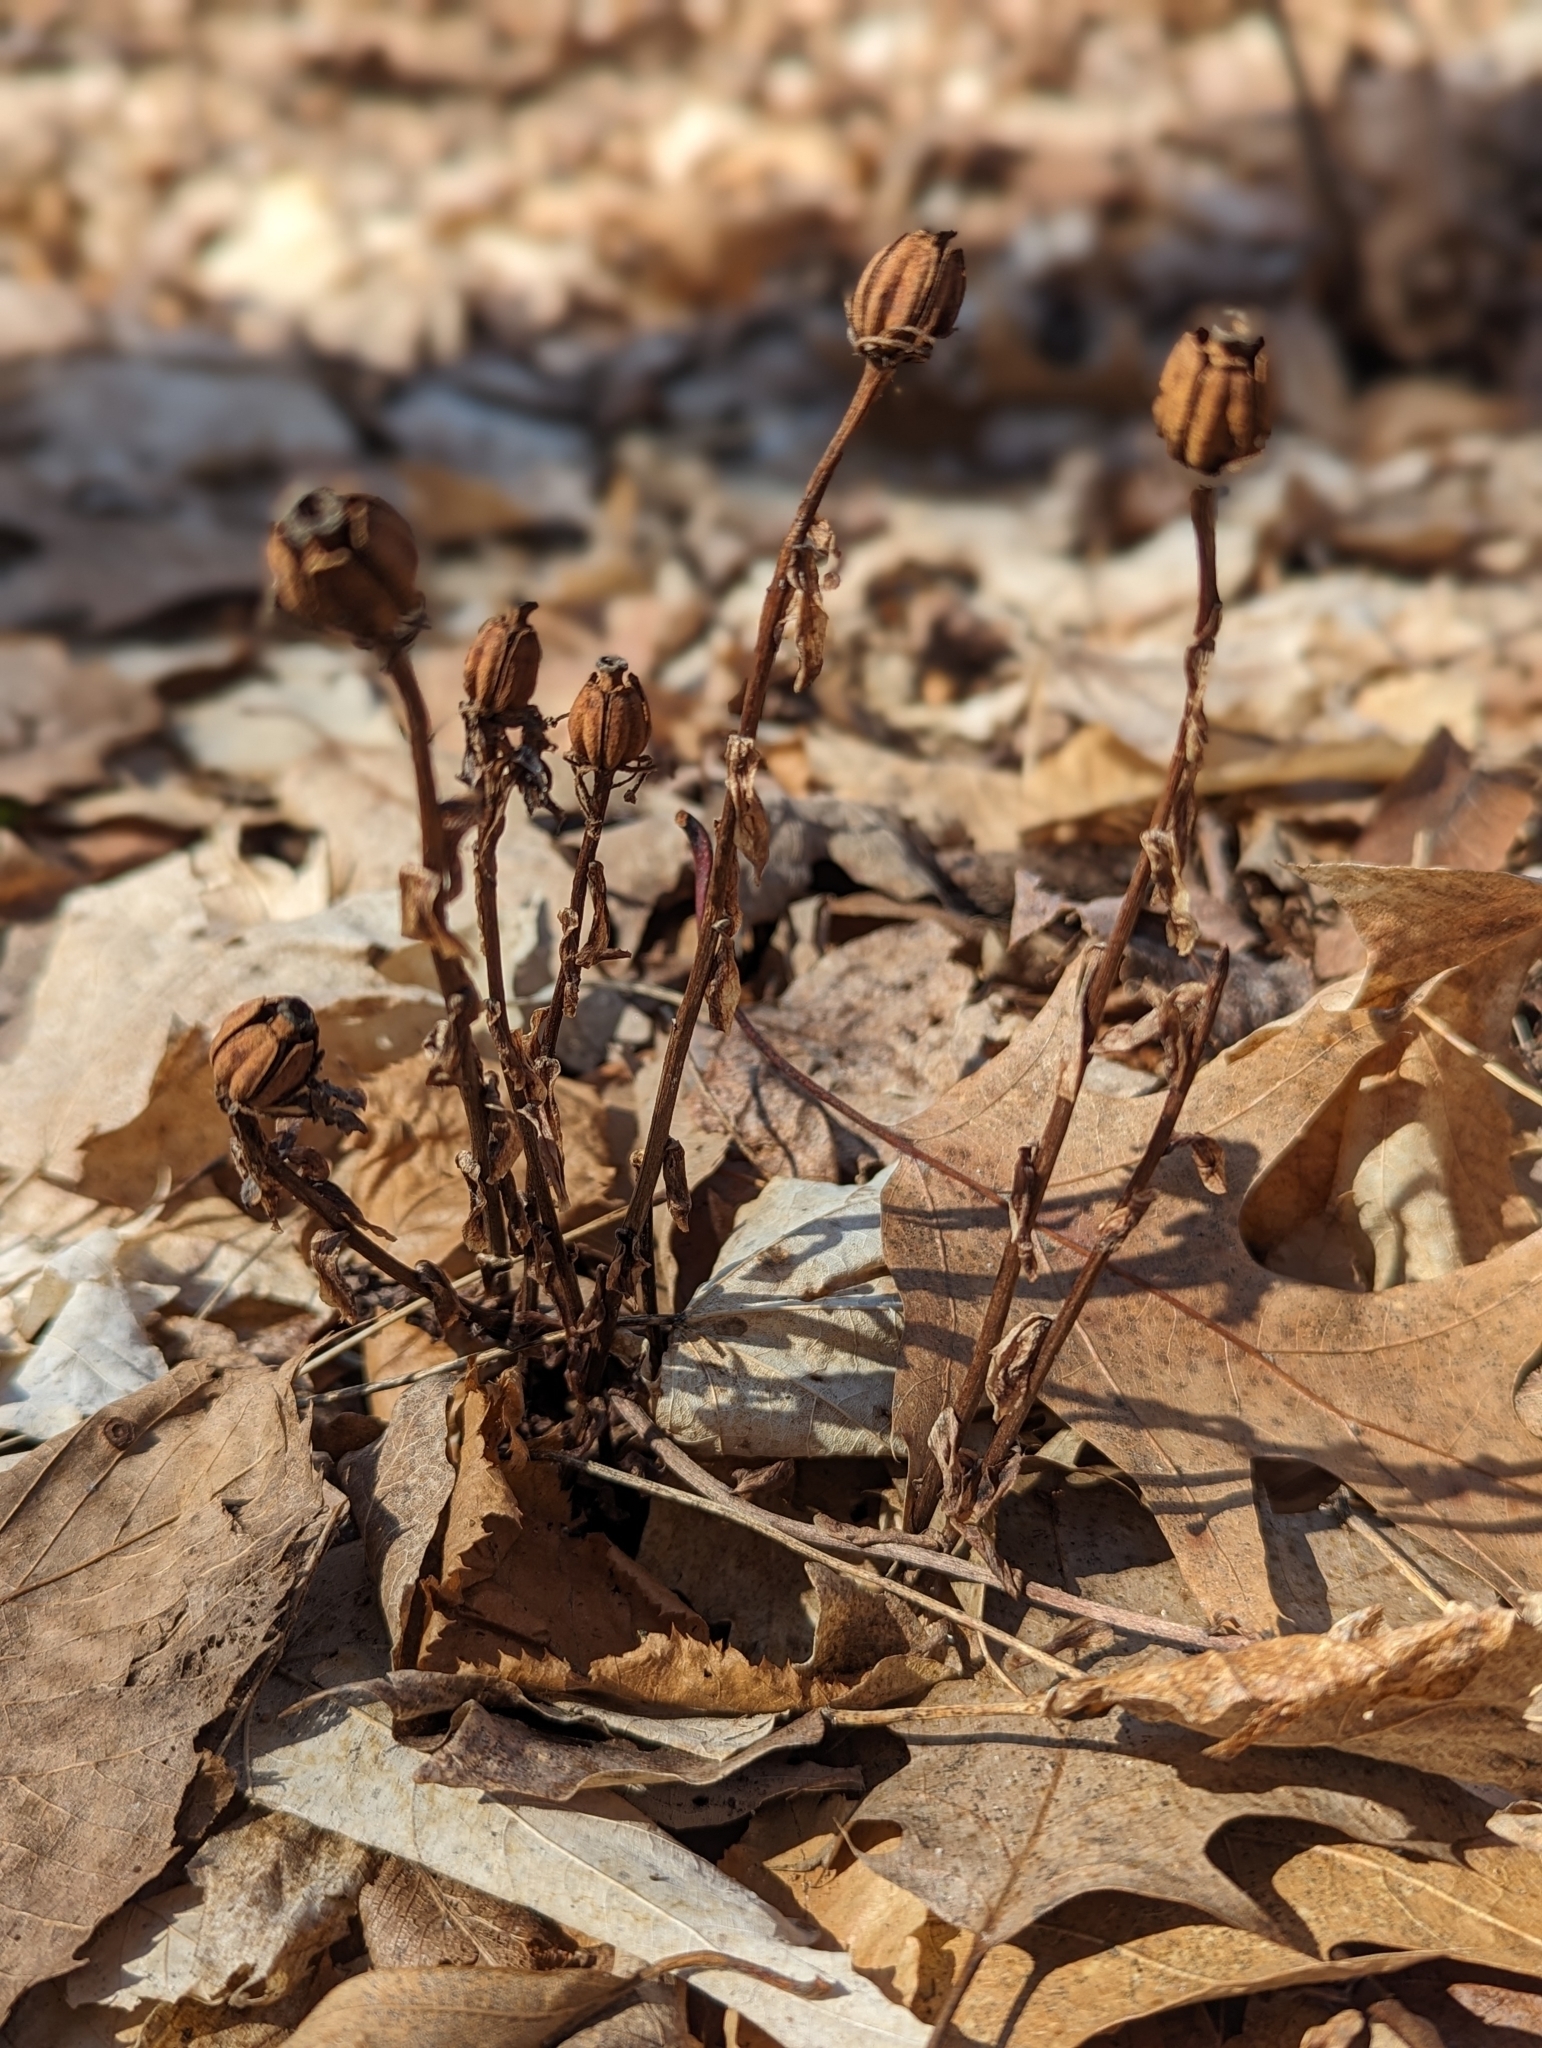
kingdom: Plantae
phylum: Tracheophyta
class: Magnoliopsida
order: Ericales
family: Ericaceae
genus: Monotropa
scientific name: Monotropa uniflora
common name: Convulsion root
